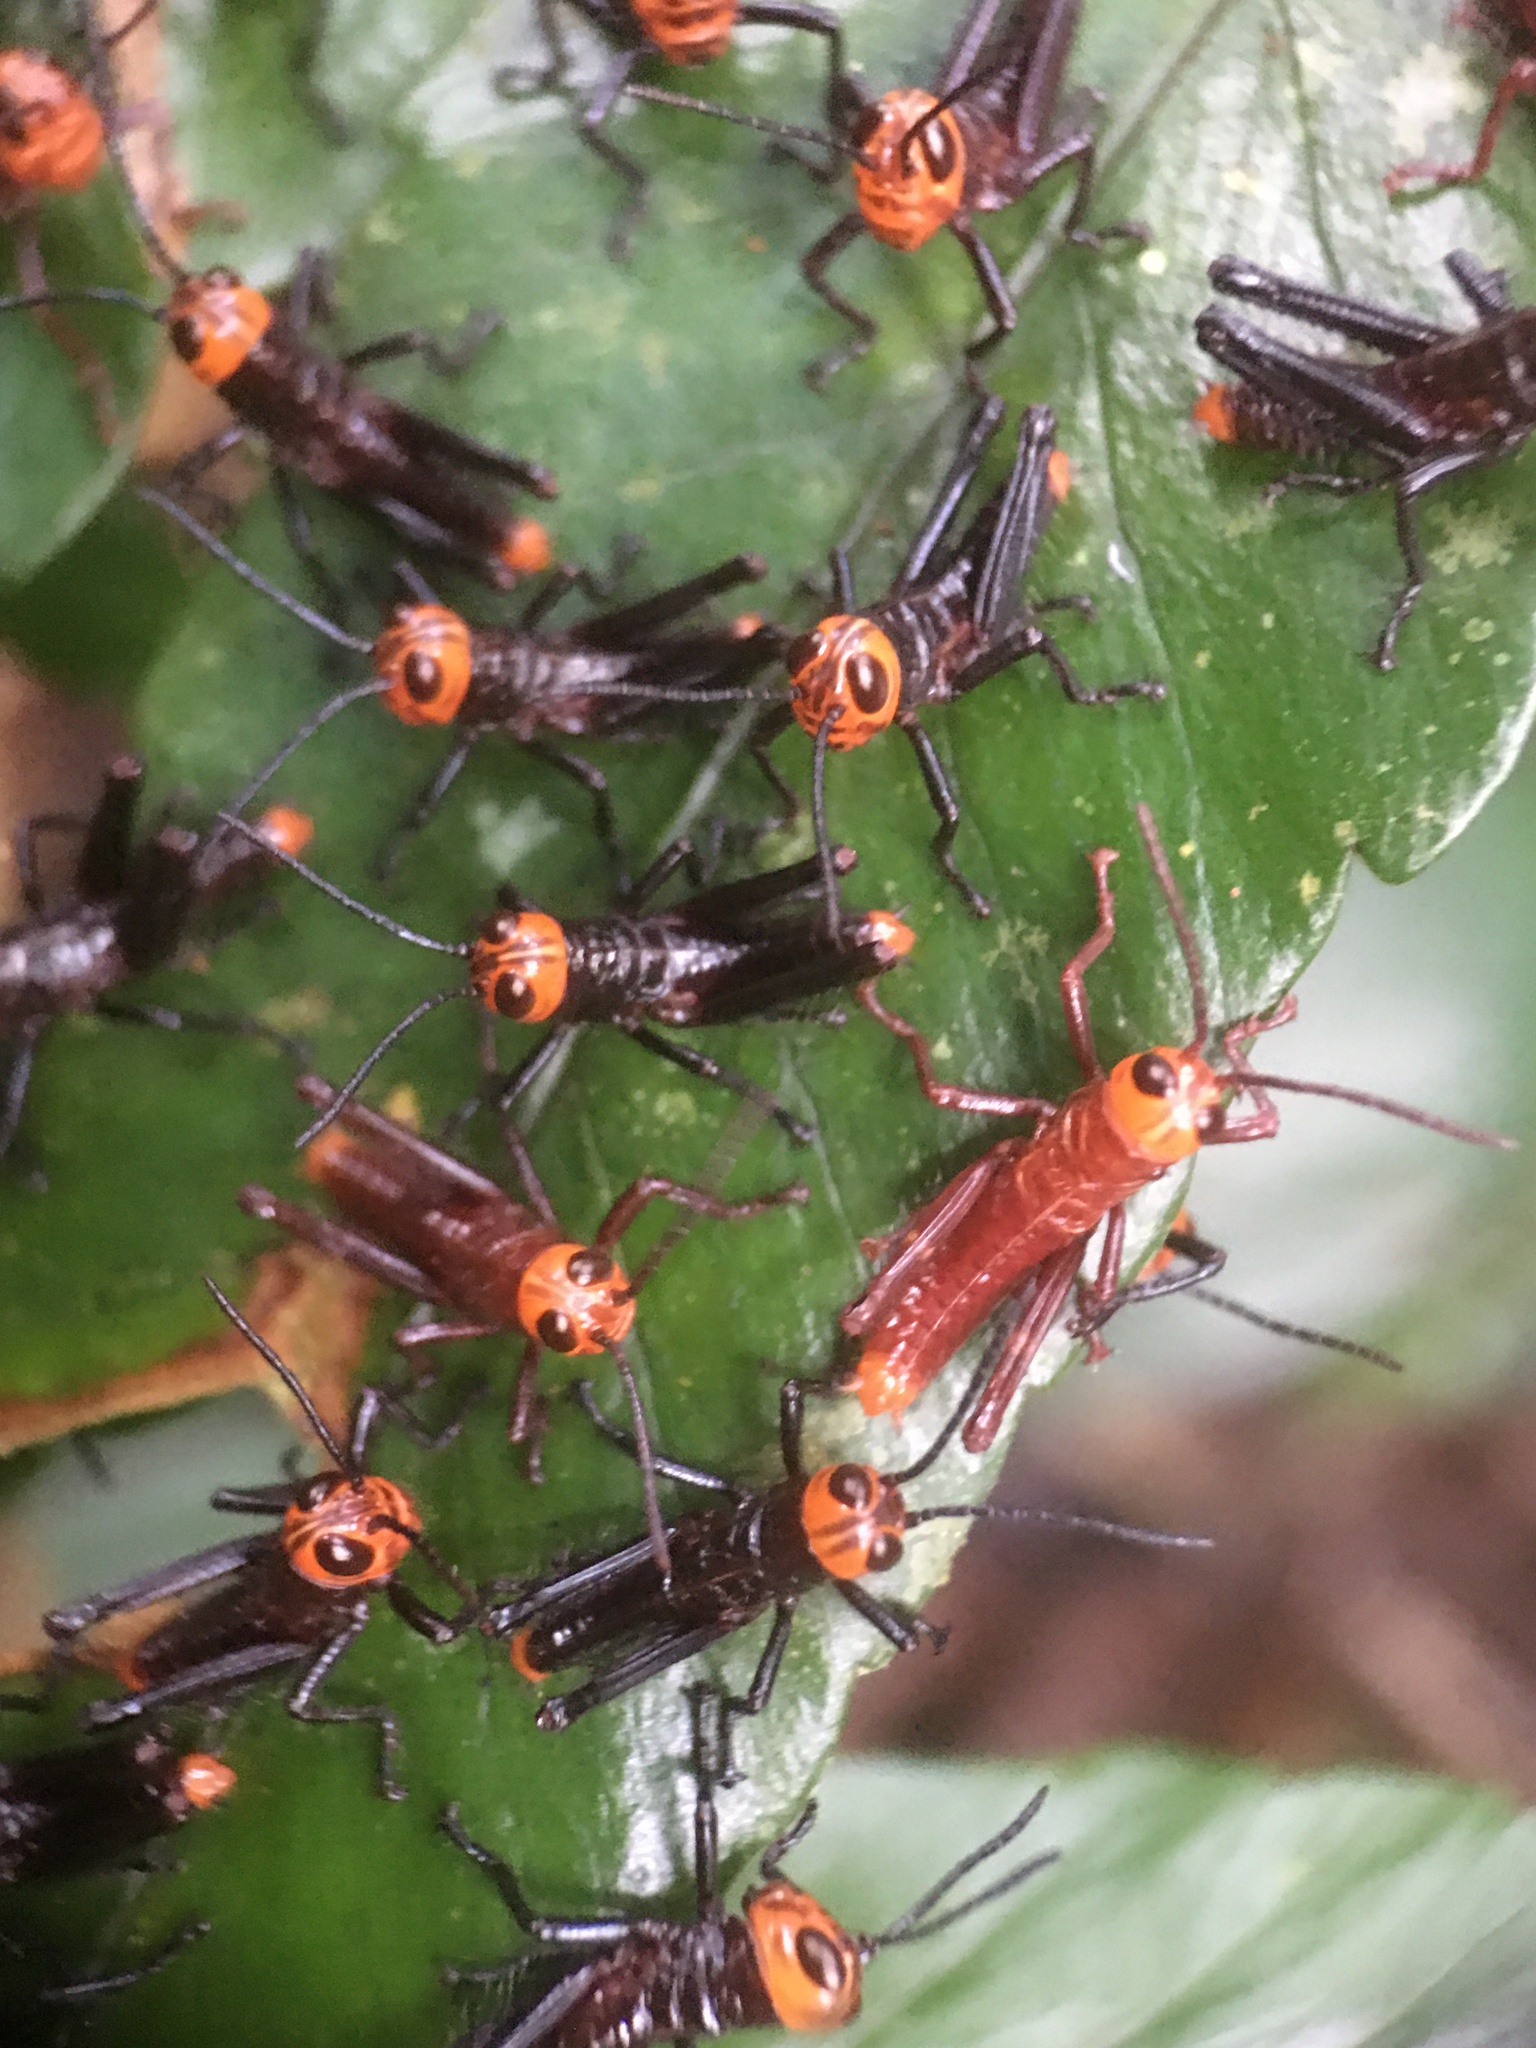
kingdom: Animalia
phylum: Arthropoda
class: Insecta
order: Orthoptera
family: Romaleidae
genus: Tropidacris
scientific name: Tropidacris collaris
